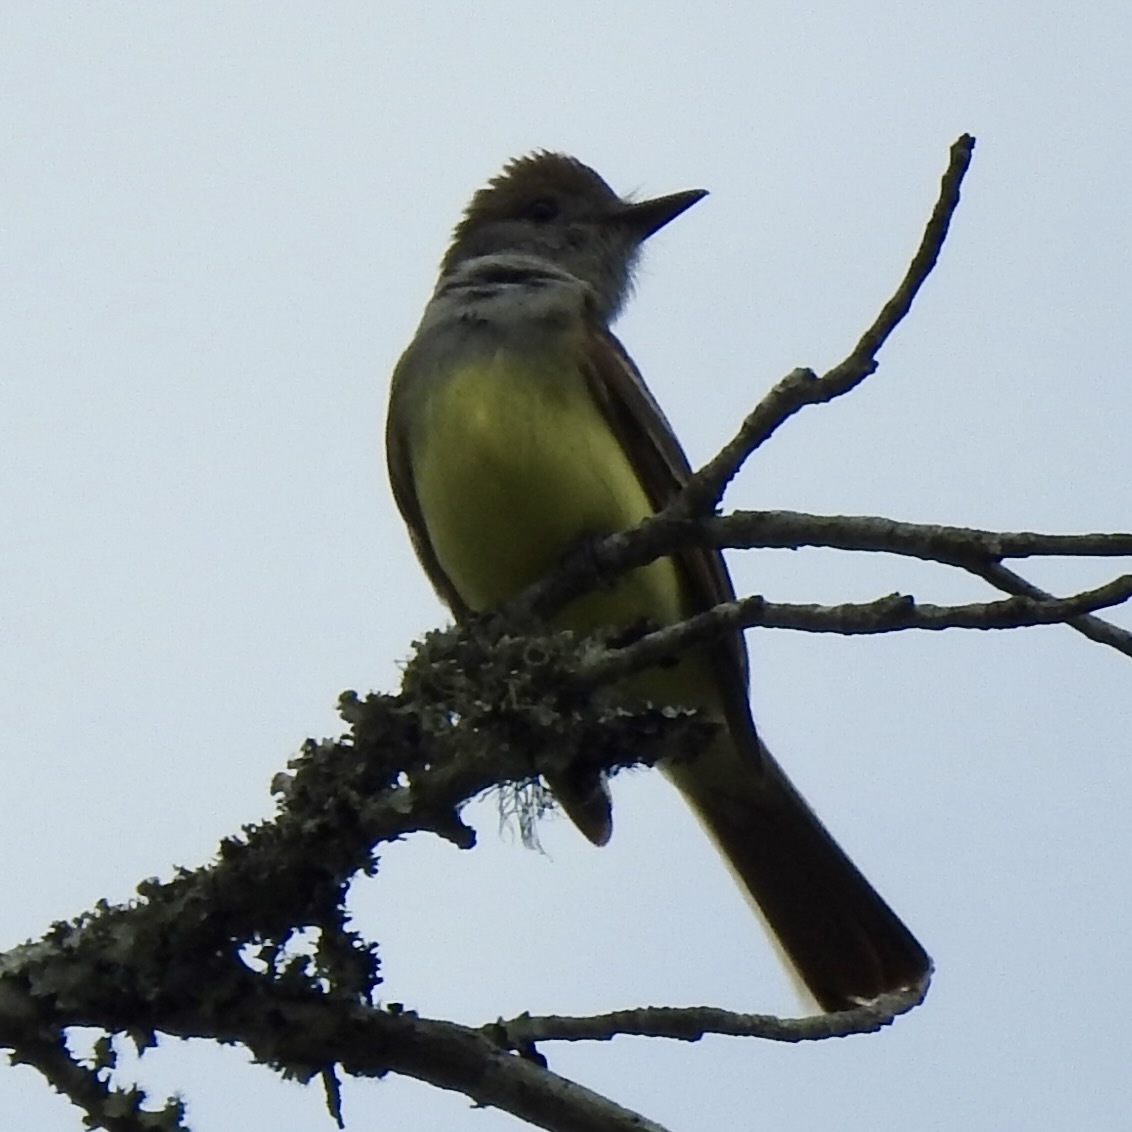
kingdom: Animalia
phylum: Chordata
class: Aves
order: Passeriformes
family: Tyrannidae
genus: Myiarchus
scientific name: Myiarchus crinitus
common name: Great crested flycatcher
